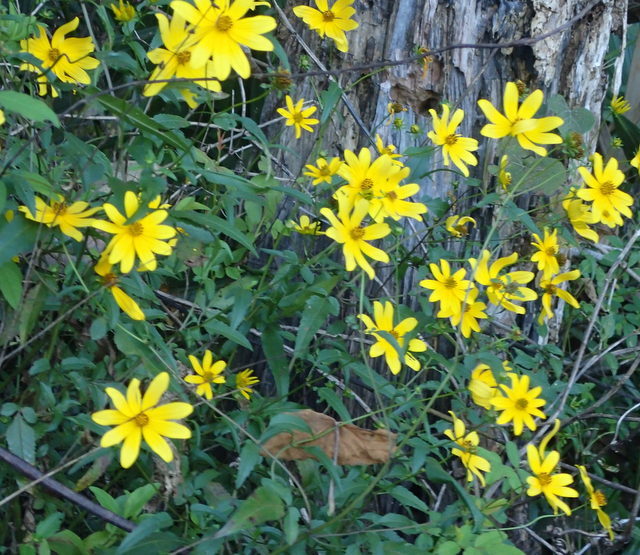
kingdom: Plantae
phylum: Tracheophyta
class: Magnoliopsida
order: Asterales
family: Asteraceae
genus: Bidens
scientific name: Bidens mitis
